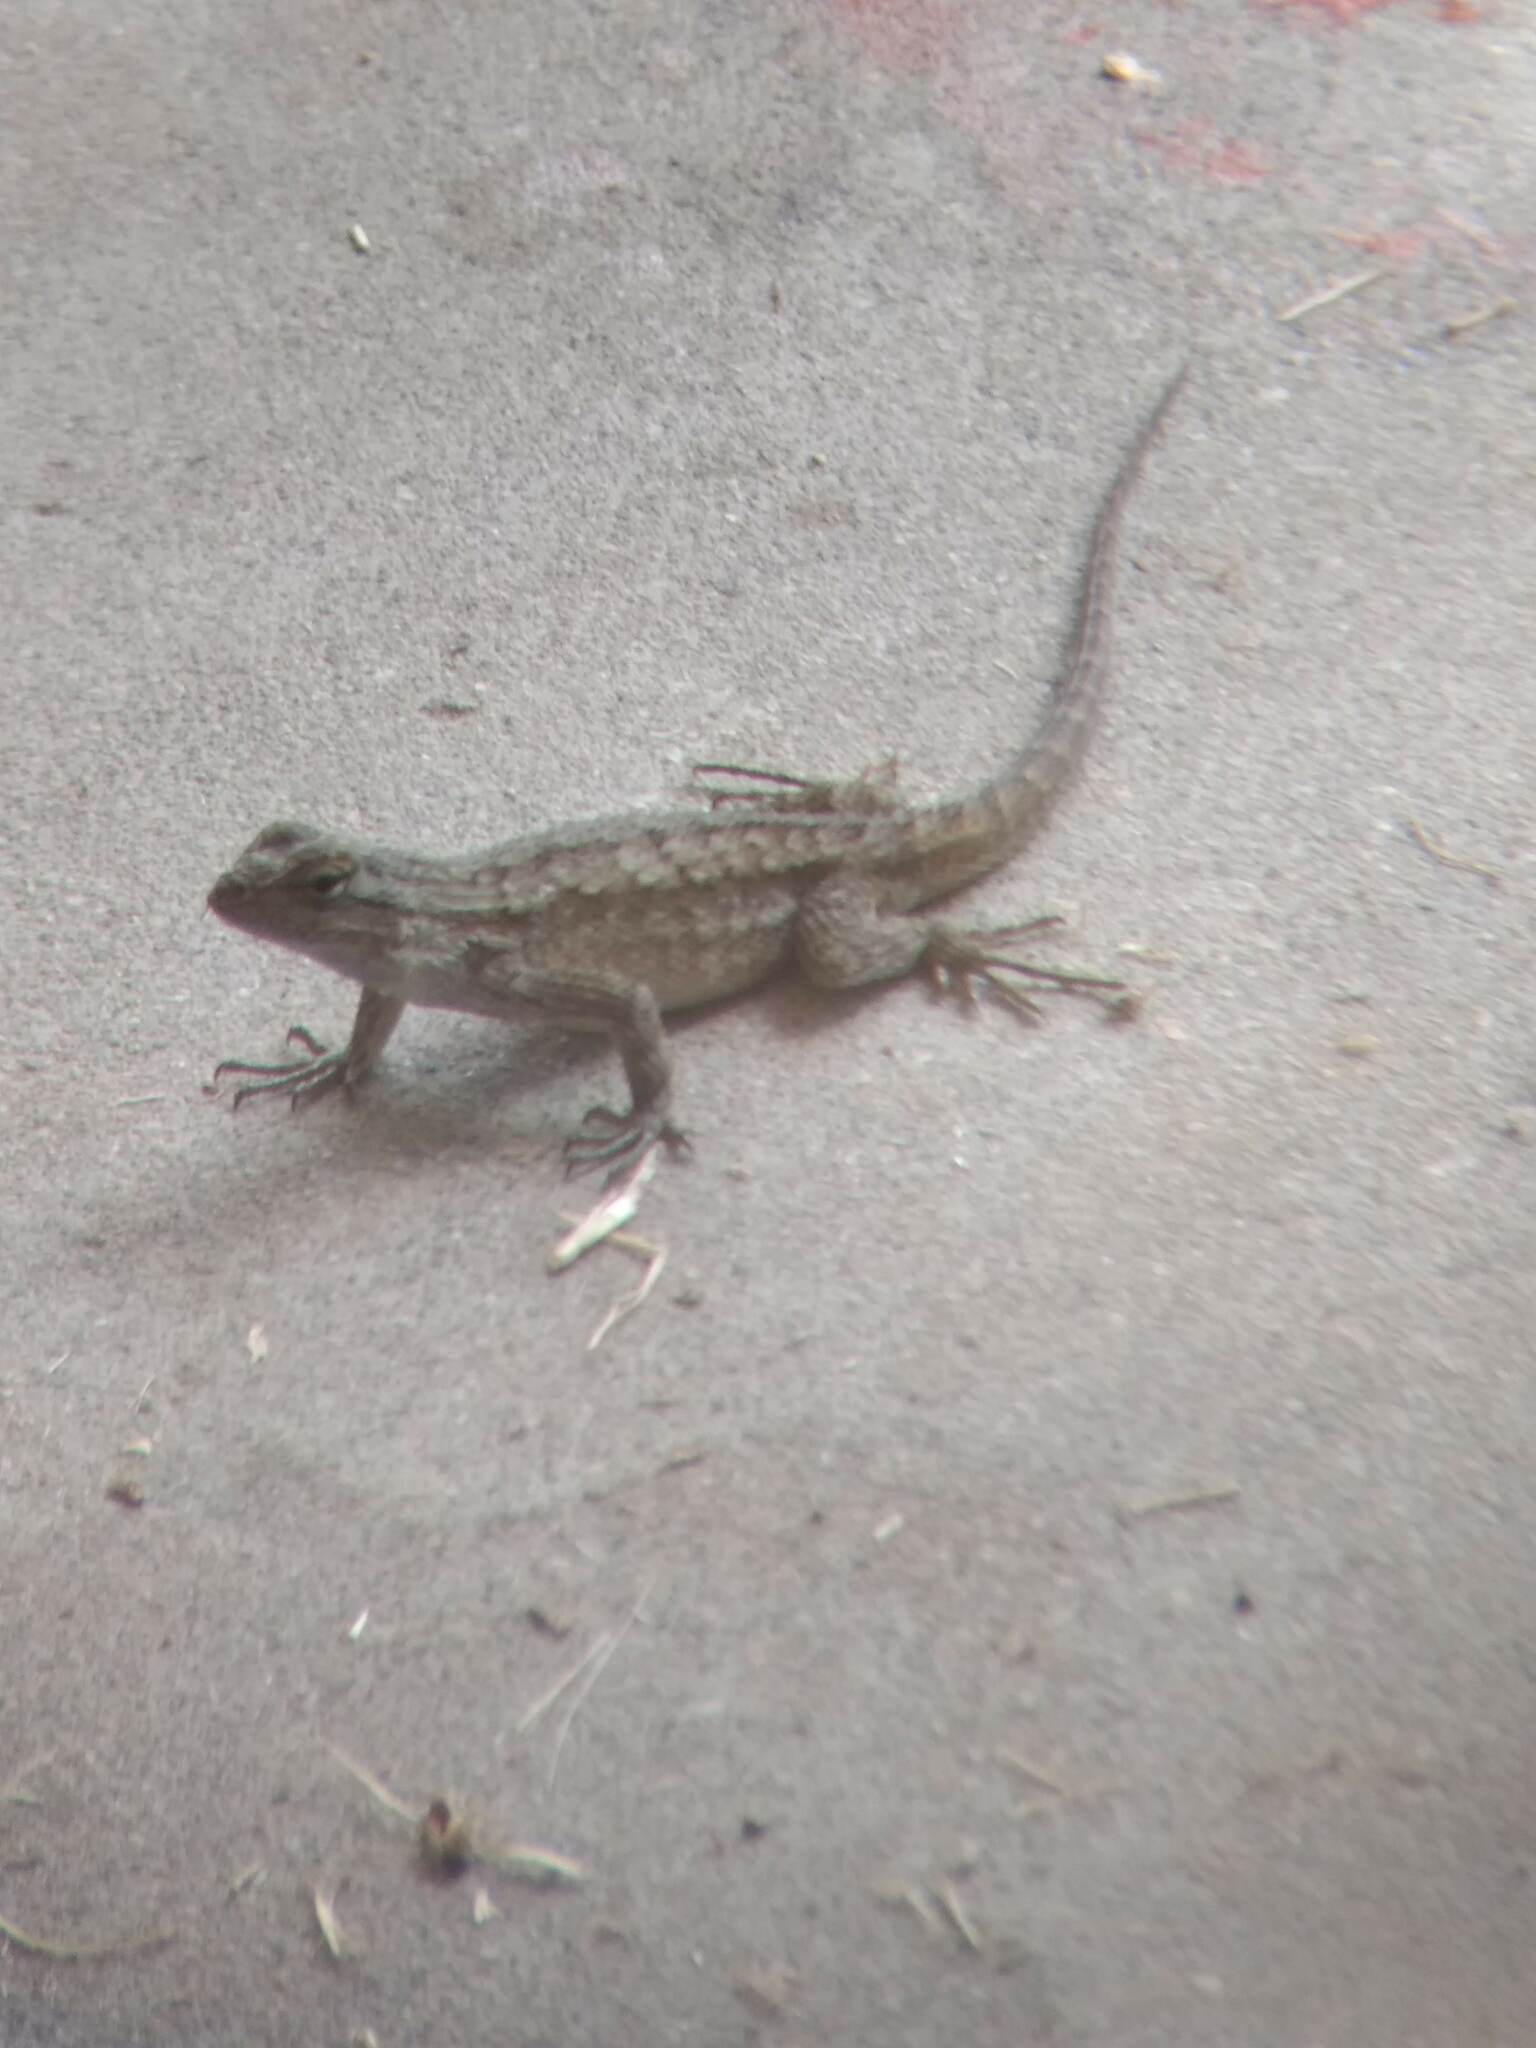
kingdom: Animalia
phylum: Chordata
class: Squamata
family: Phrynosomatidae
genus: Sceloporus
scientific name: Sceloporus occidentalis
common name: Western fence lizard
